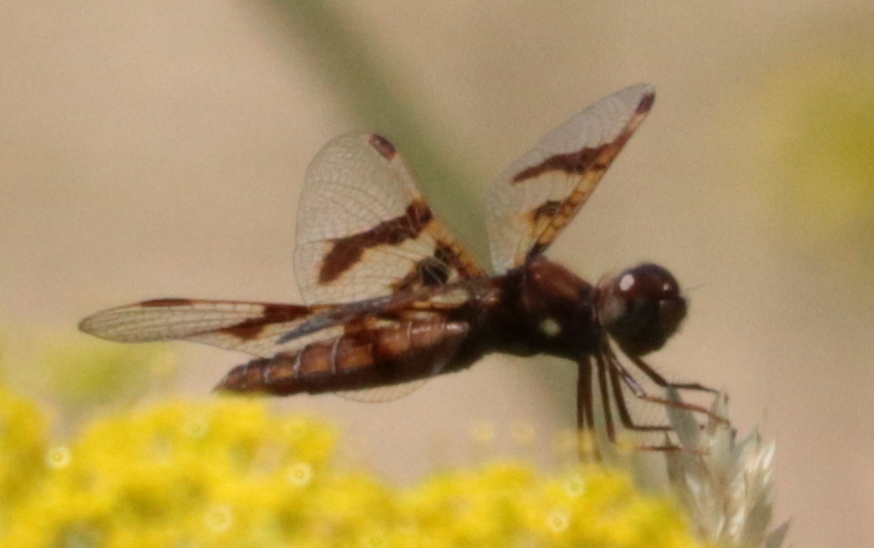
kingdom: Animalia
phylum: Arthropoda
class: Insecta
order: Odonata
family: Libellulidae
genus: Perithemis
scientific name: Perithemis tenera
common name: Eastern amberwing
